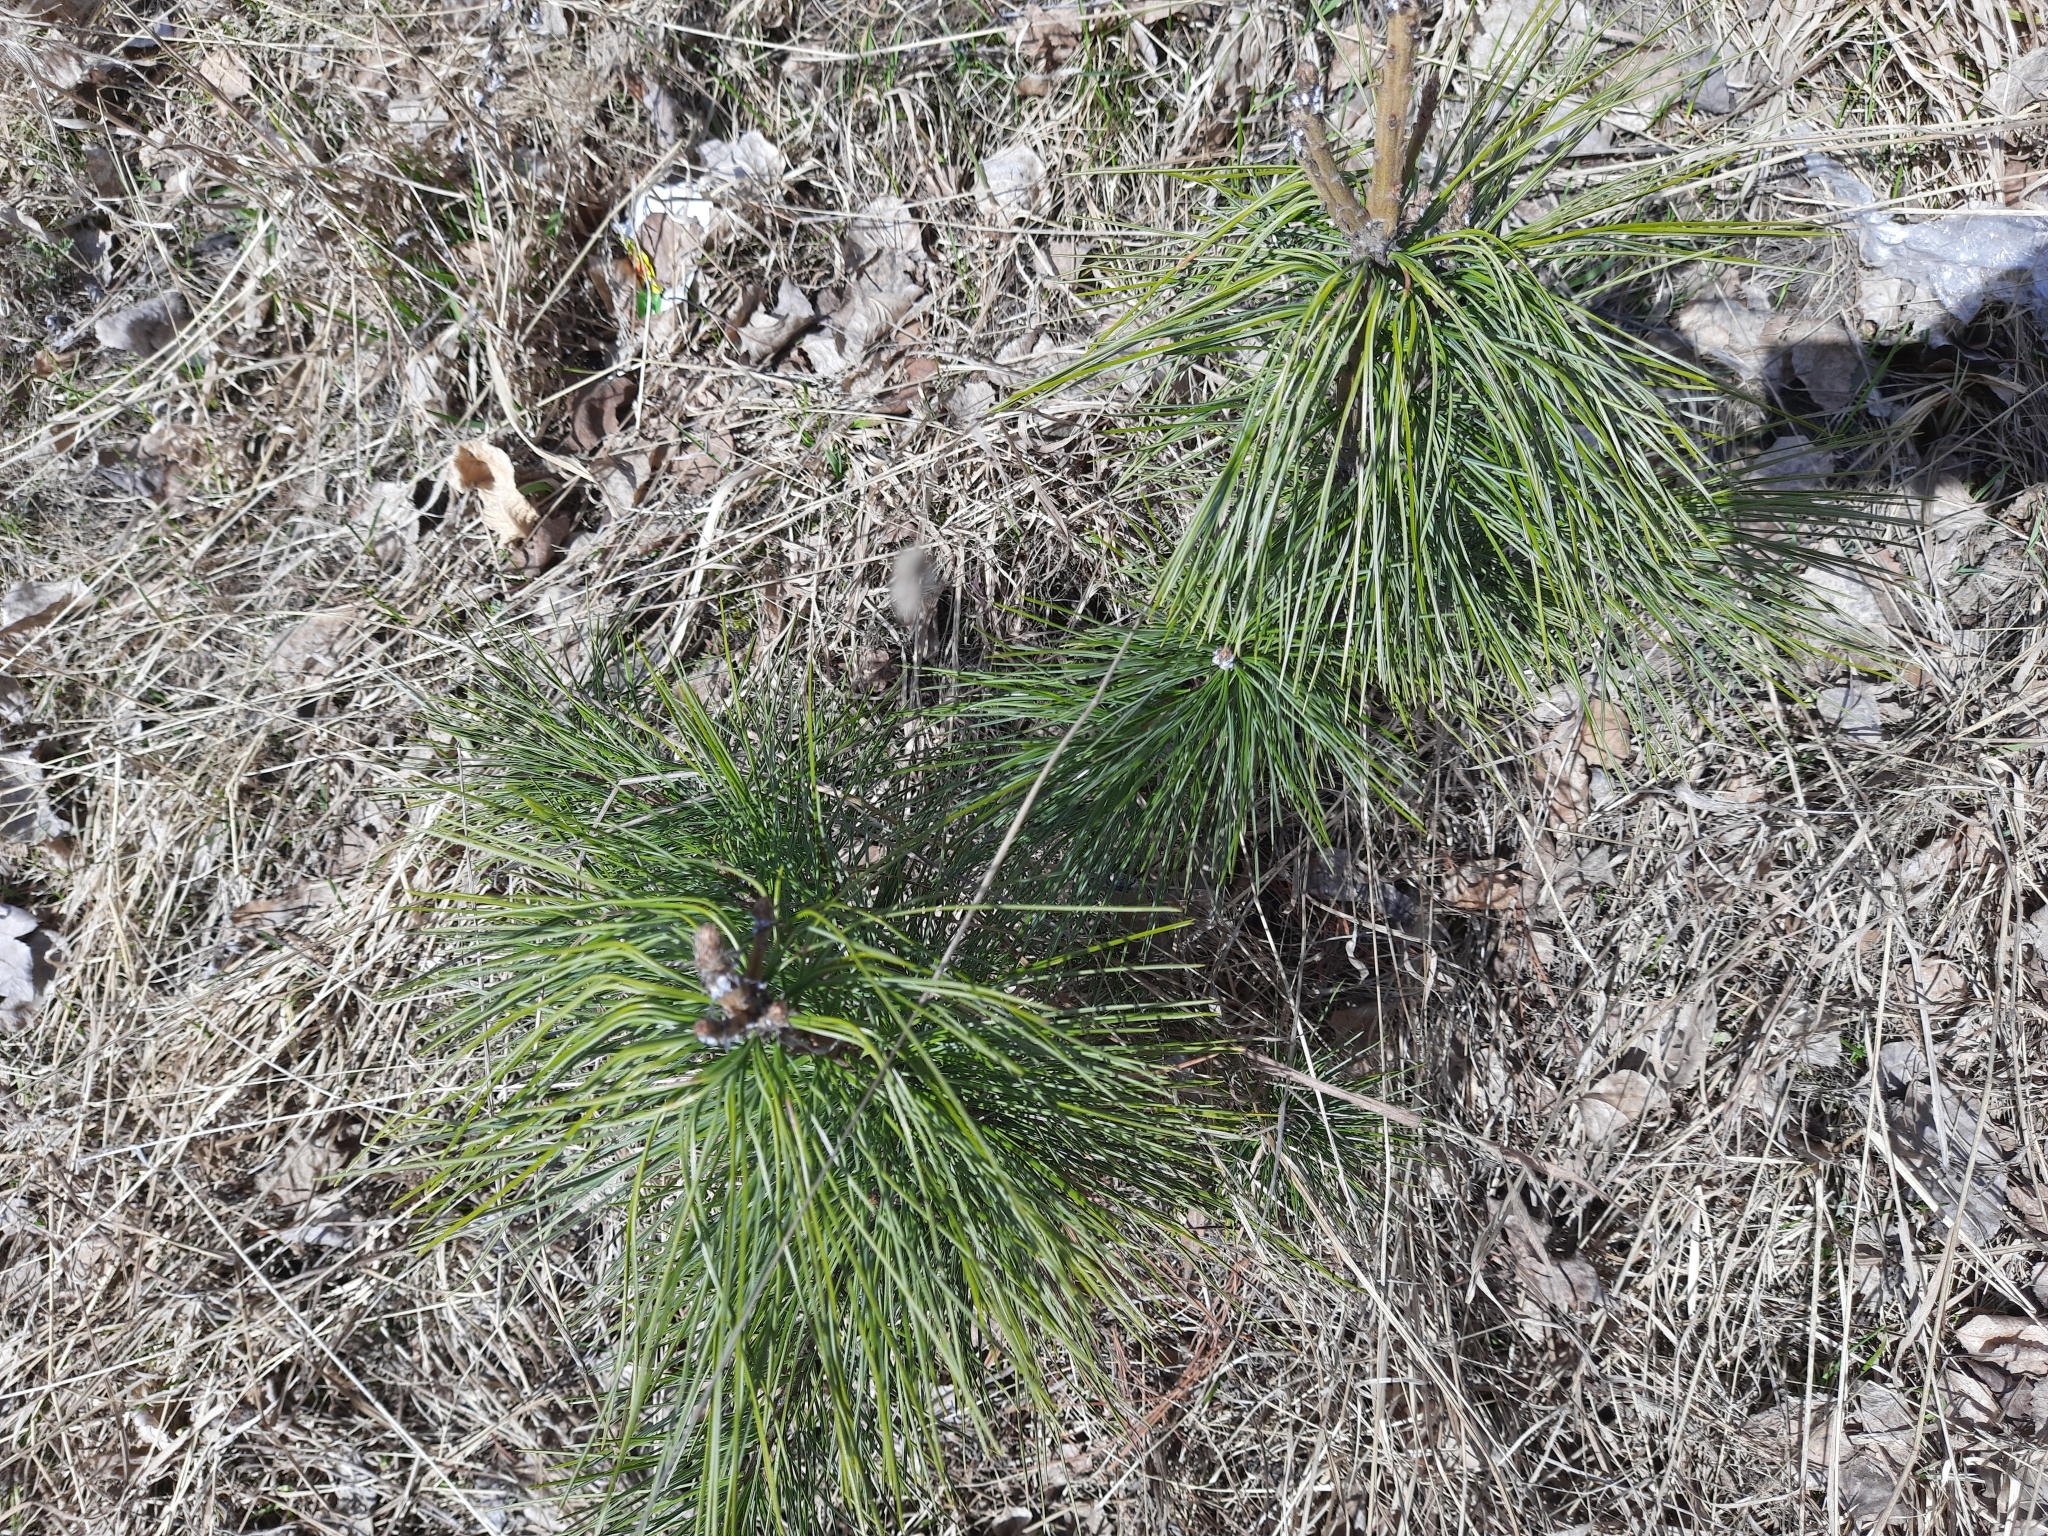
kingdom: Plantae
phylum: Tracheophyta
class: Pinopsida
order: Pinales
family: Pinaceae
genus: Pinus
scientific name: Pinus sibirica
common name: Siberian pine
